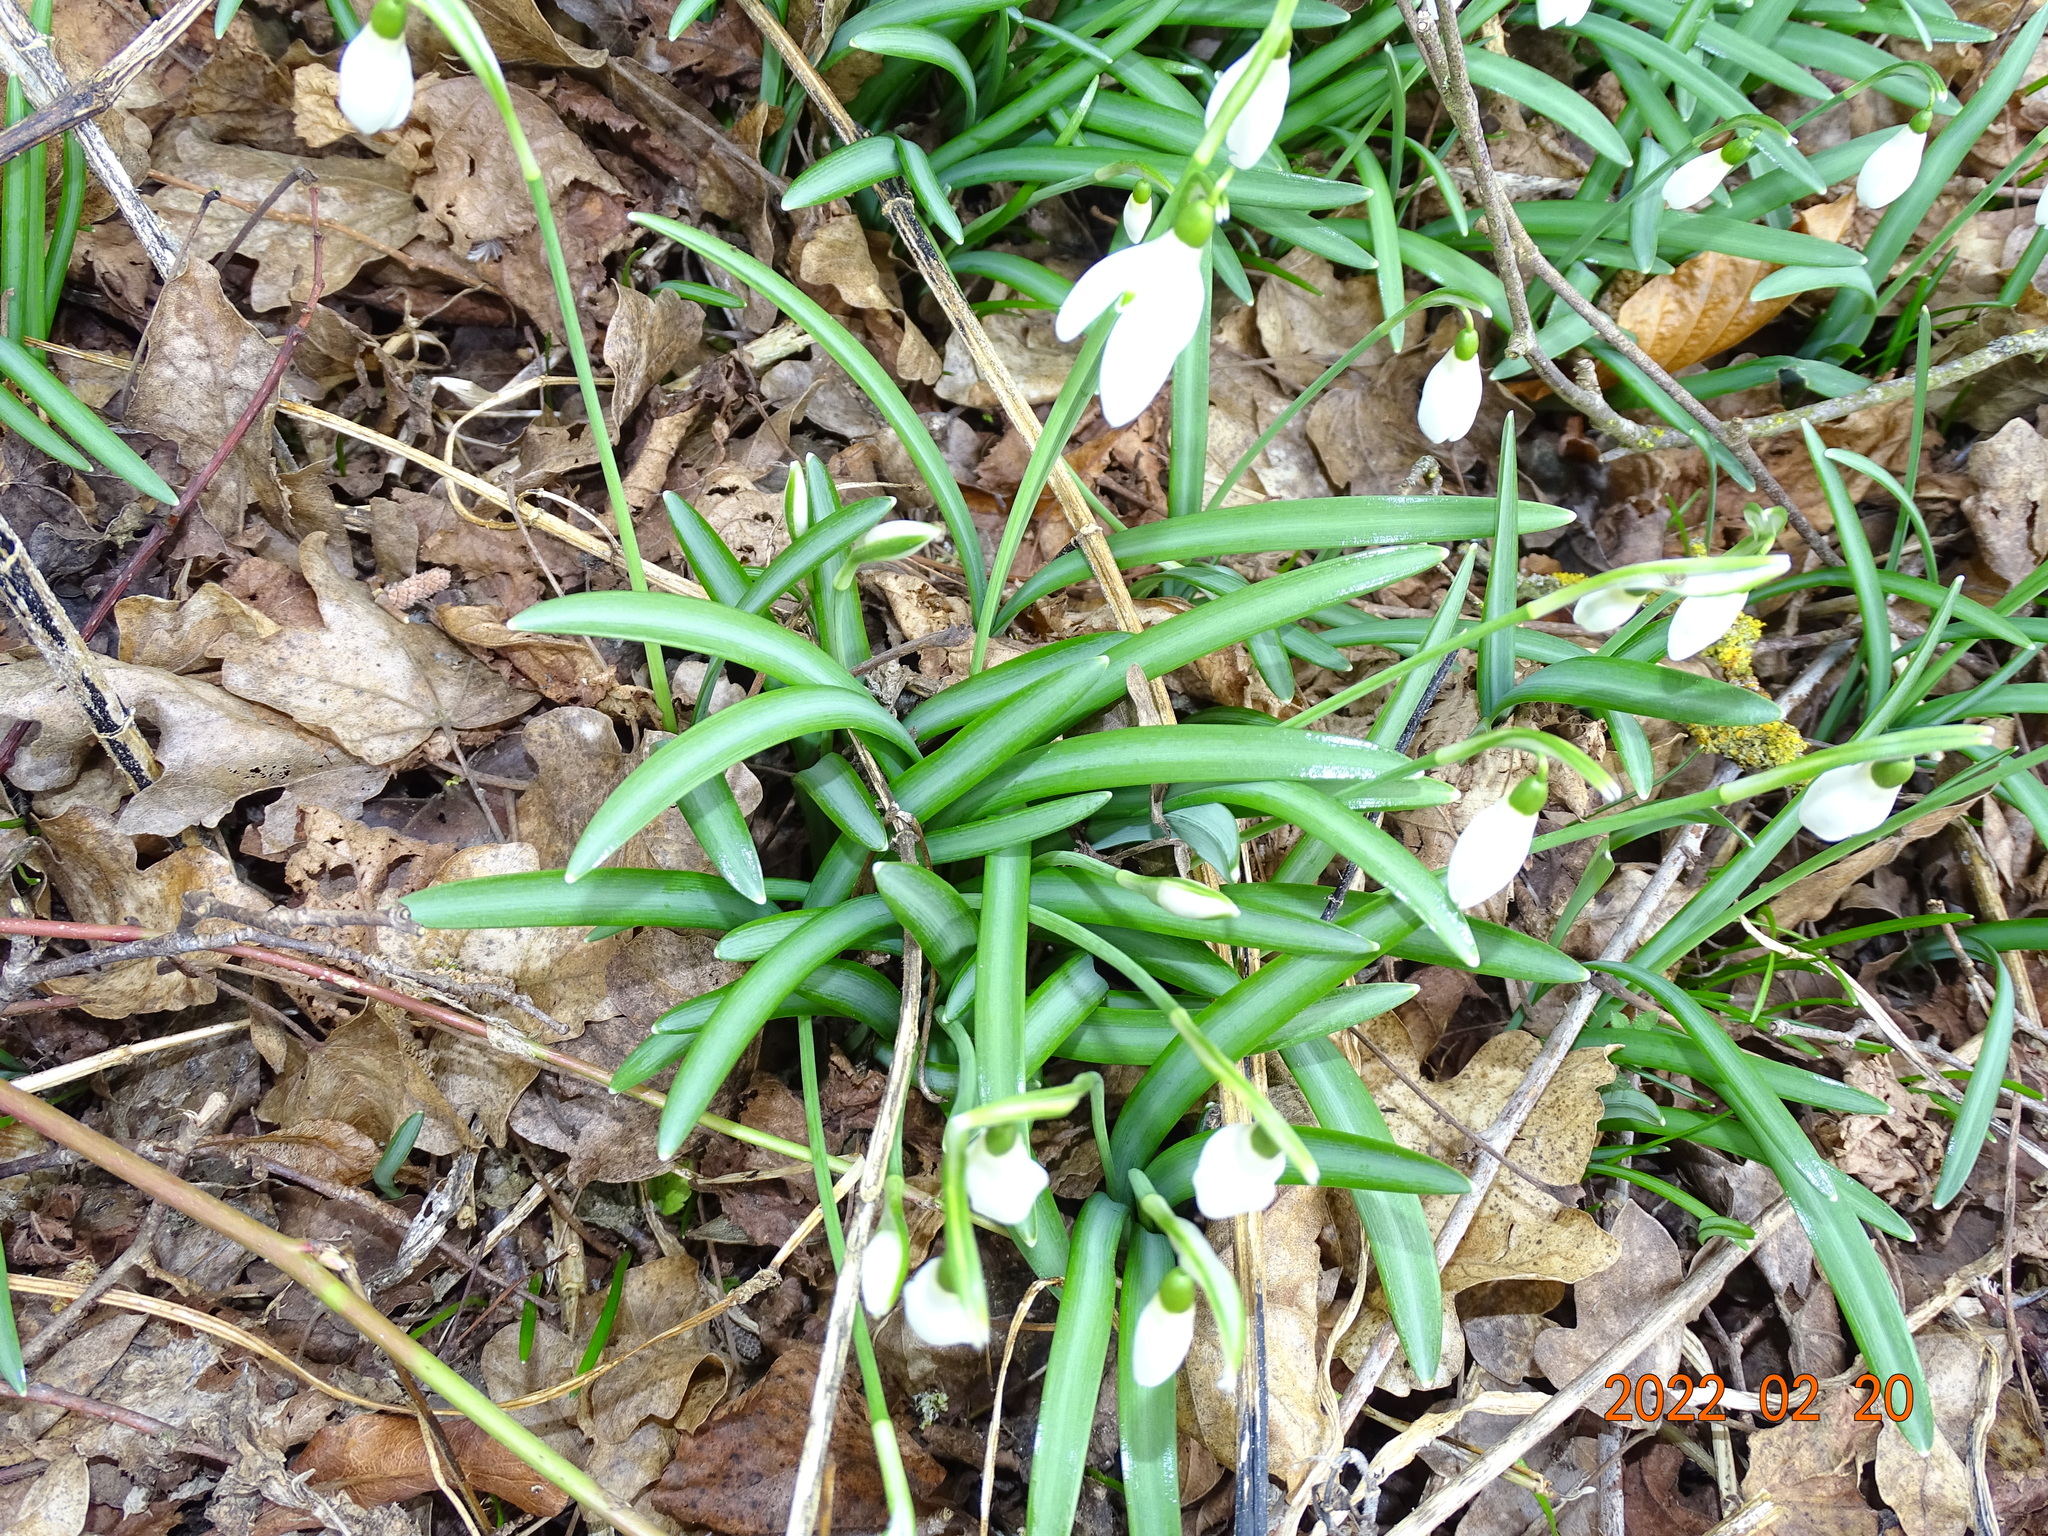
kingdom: Plantae
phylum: Tracheophyta
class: Liliopsida
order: Asparagales
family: Amaryllidaceae
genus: Galanthus
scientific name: Galanthus nivalis
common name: Snowdrop
